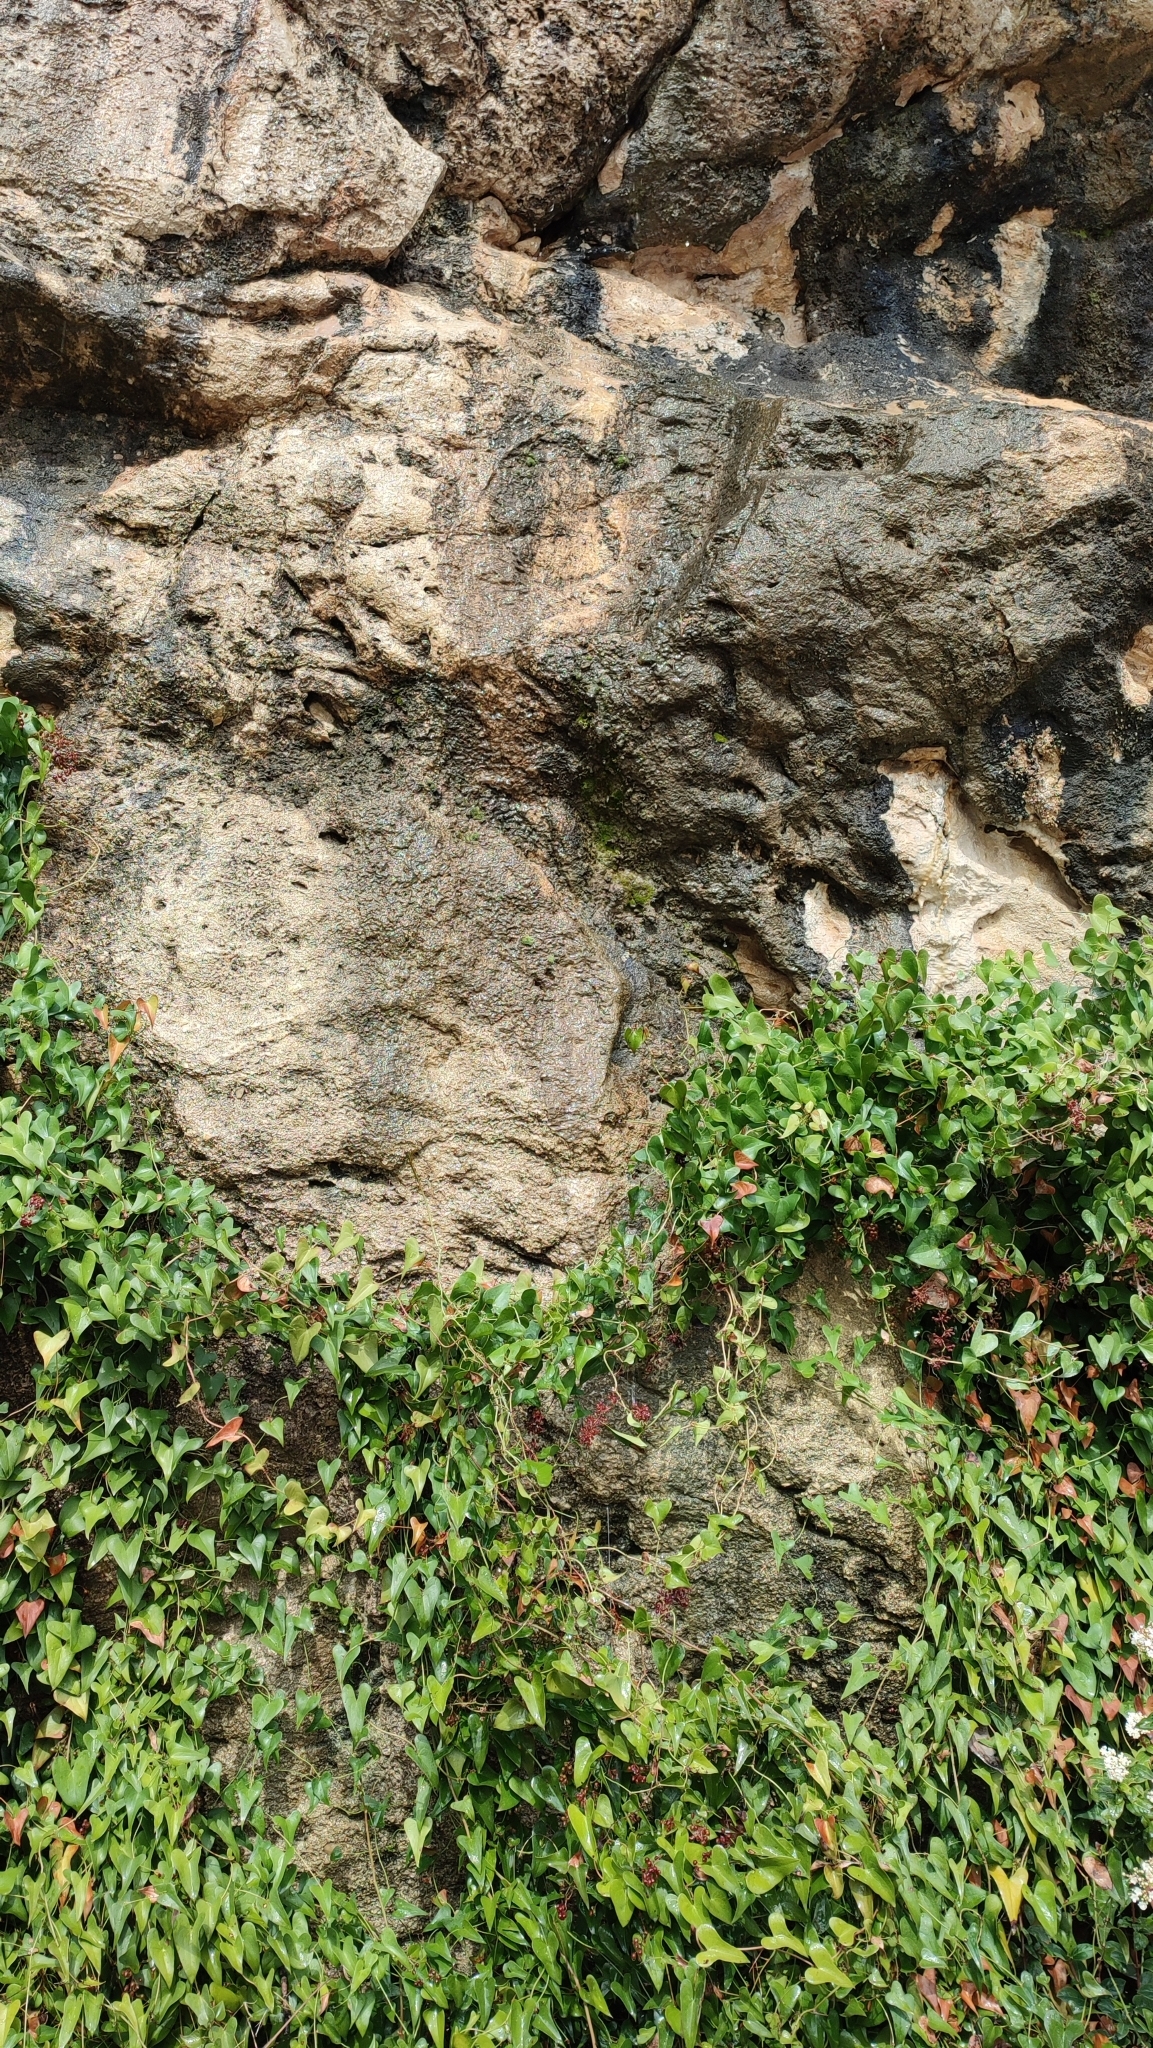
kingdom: Plantae
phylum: Tracheophyta
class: Liliopsida
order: Liliales
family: Smilacaceae
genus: Smilax
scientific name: Smilax aspera
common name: Common smilax
